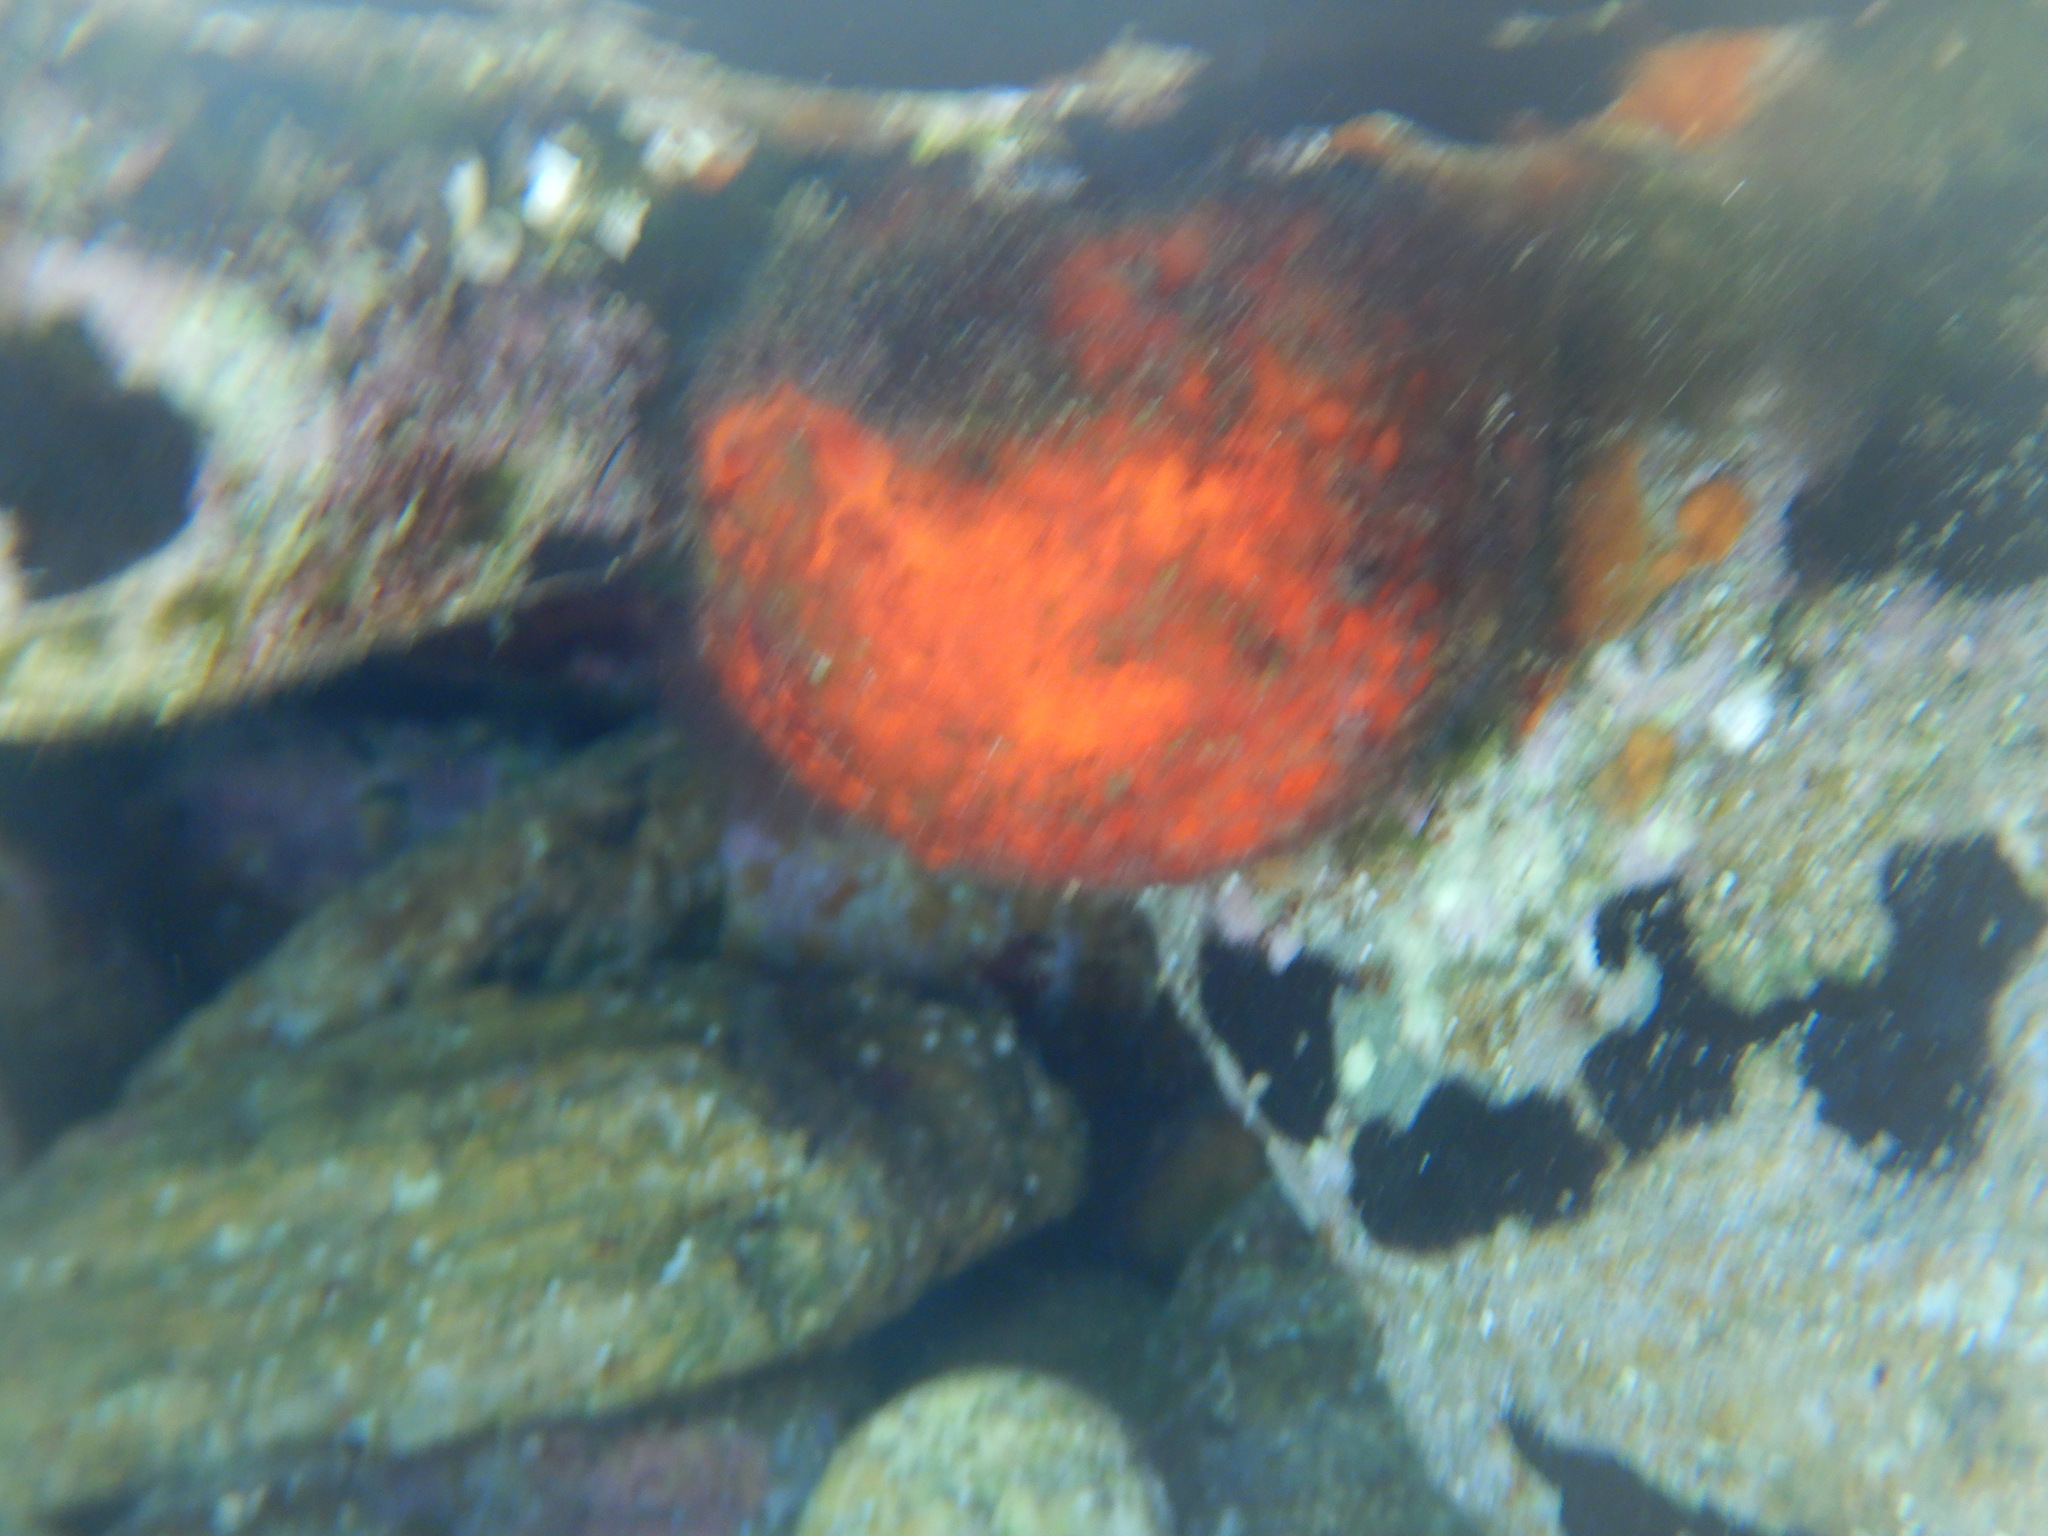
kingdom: Animalia
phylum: Porifera
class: Demospongiae
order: Tethyida
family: Tethyidae
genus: Tethya
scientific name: Tethya aurantium
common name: Golf ball sponge
